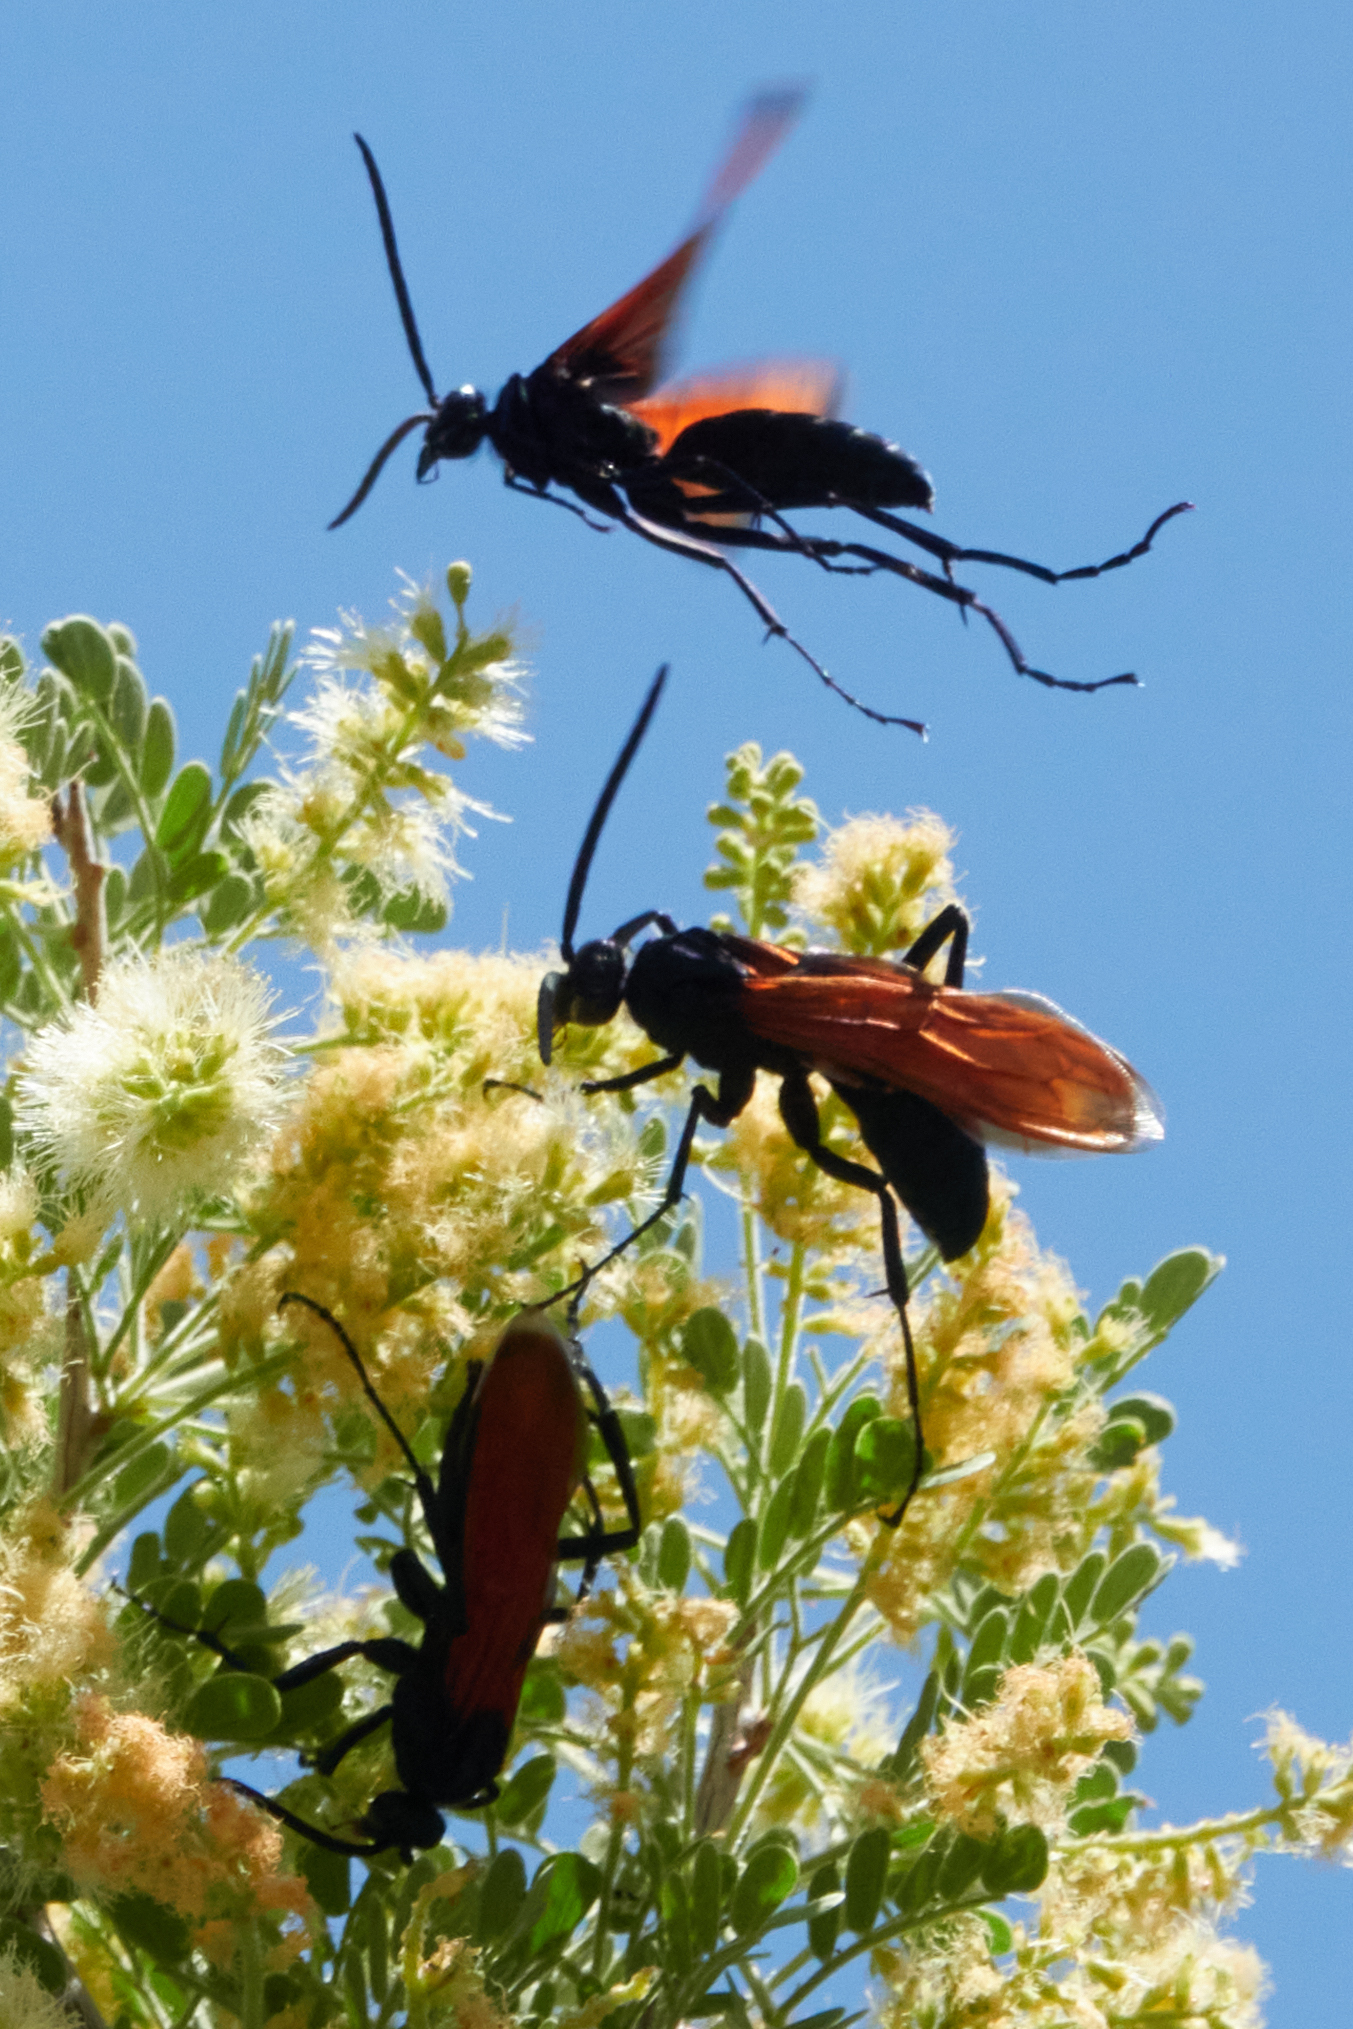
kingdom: Animalia
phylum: Arthropoda
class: Insecta
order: Hymenoptera
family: Pompilidae
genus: Pepsis
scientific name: Pepsis thisbe
